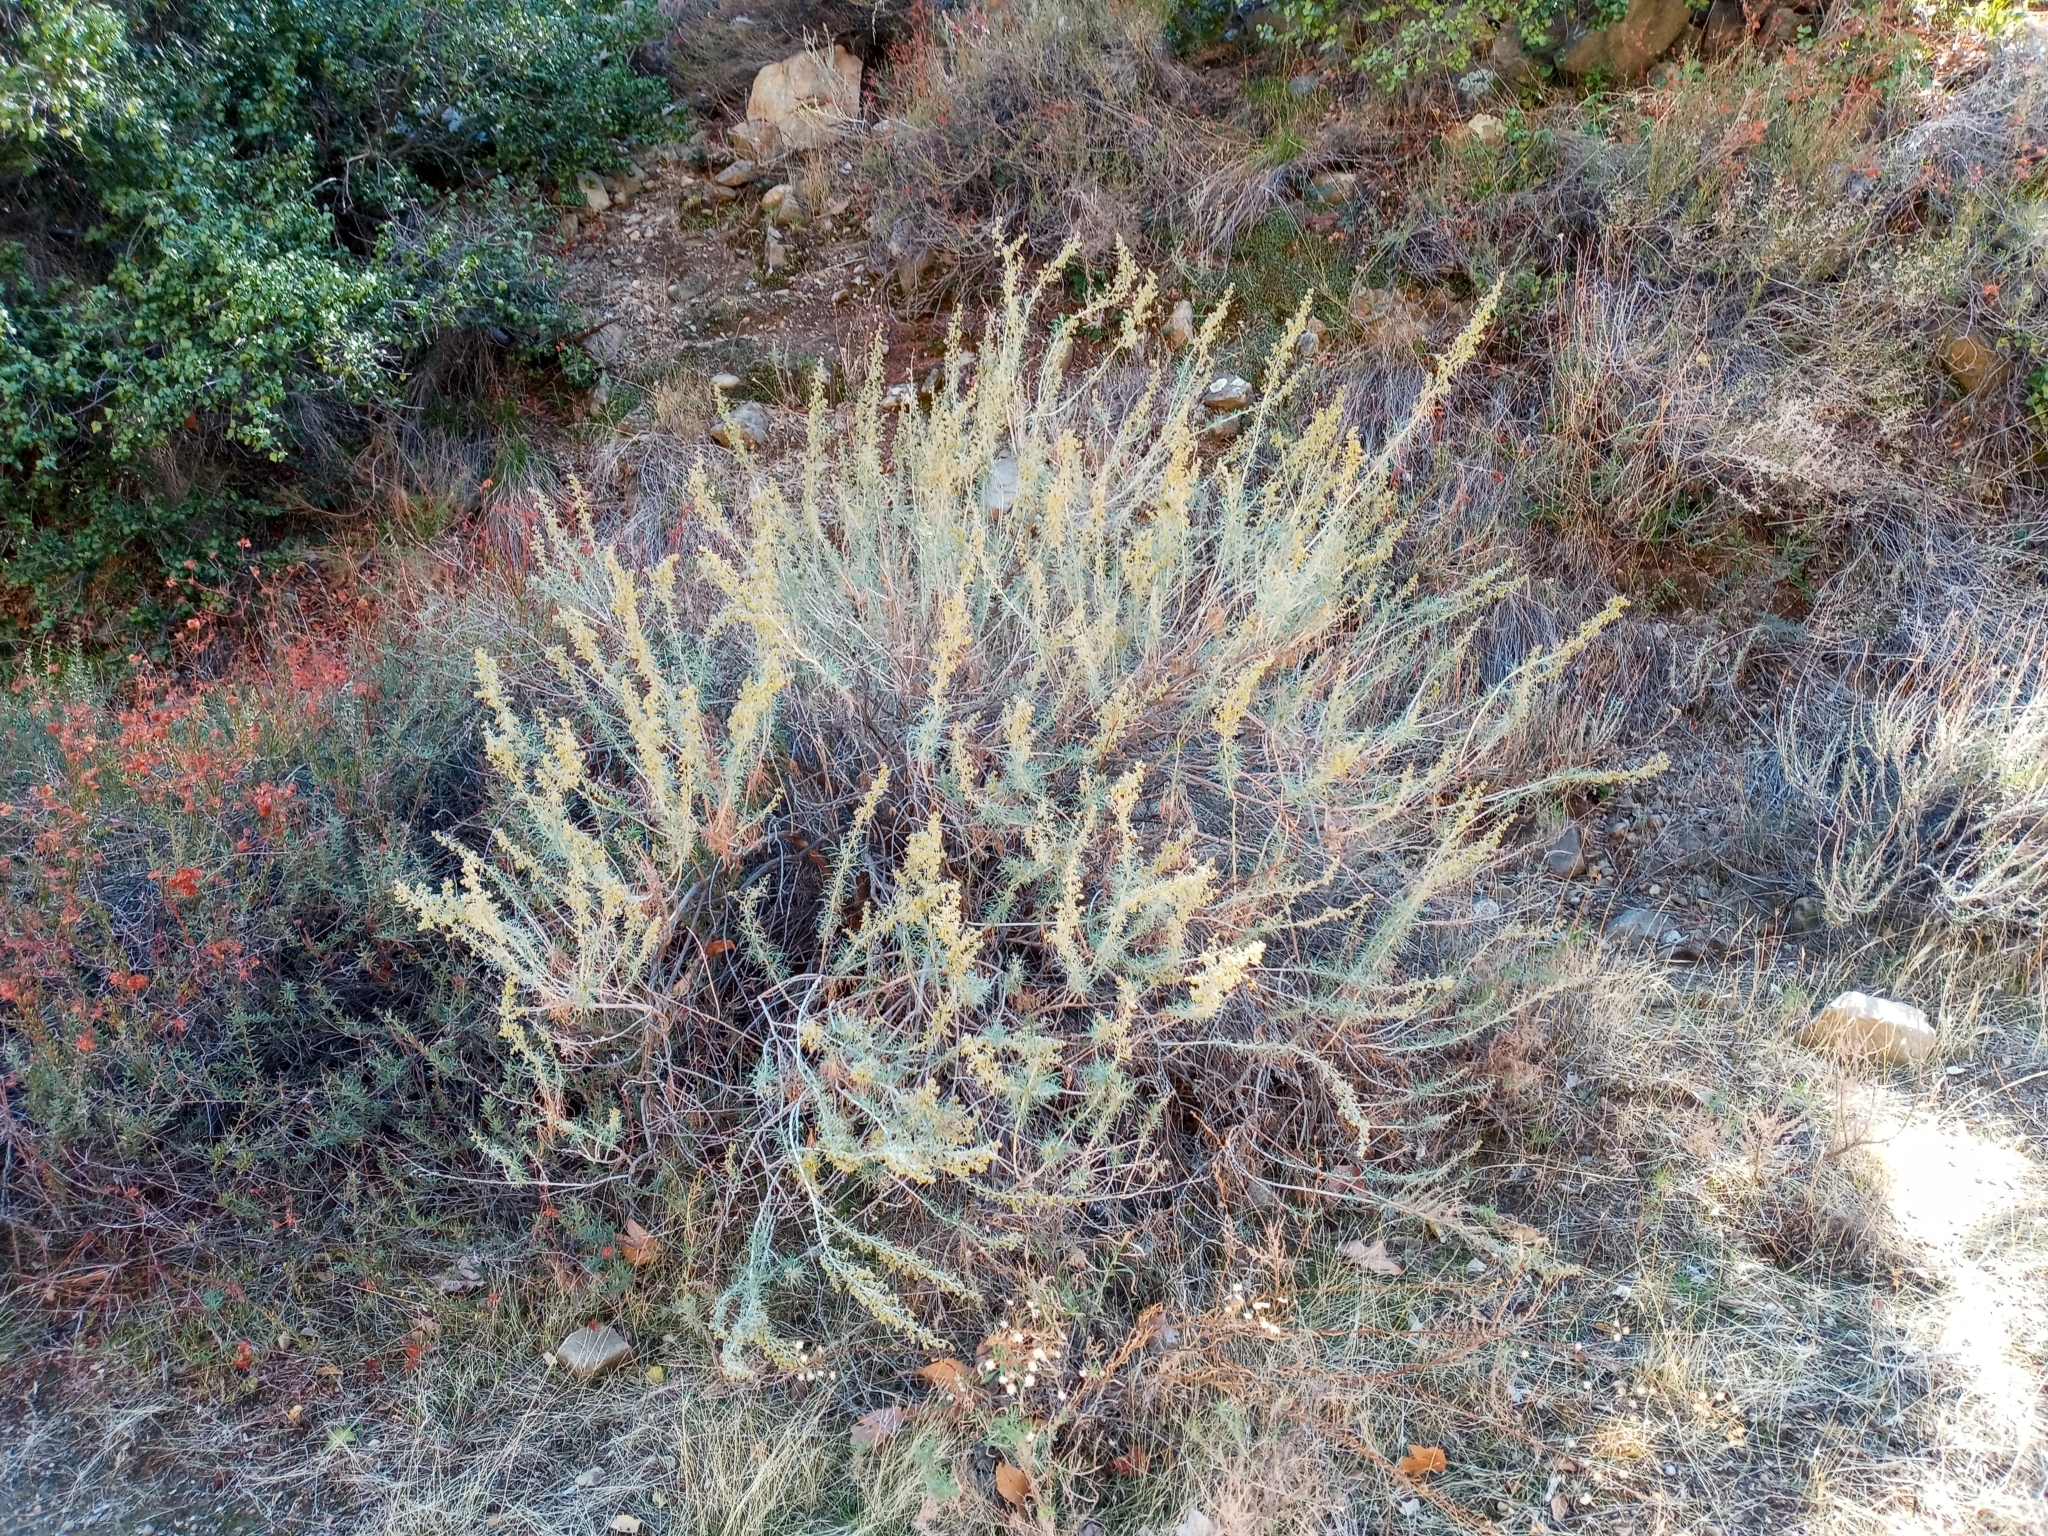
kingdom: Plantae
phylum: Tracheophyta
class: Magnoliopsida
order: Asterales
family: Asteraceae
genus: Artemisia
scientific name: Artemisia californica
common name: California sagebrush
